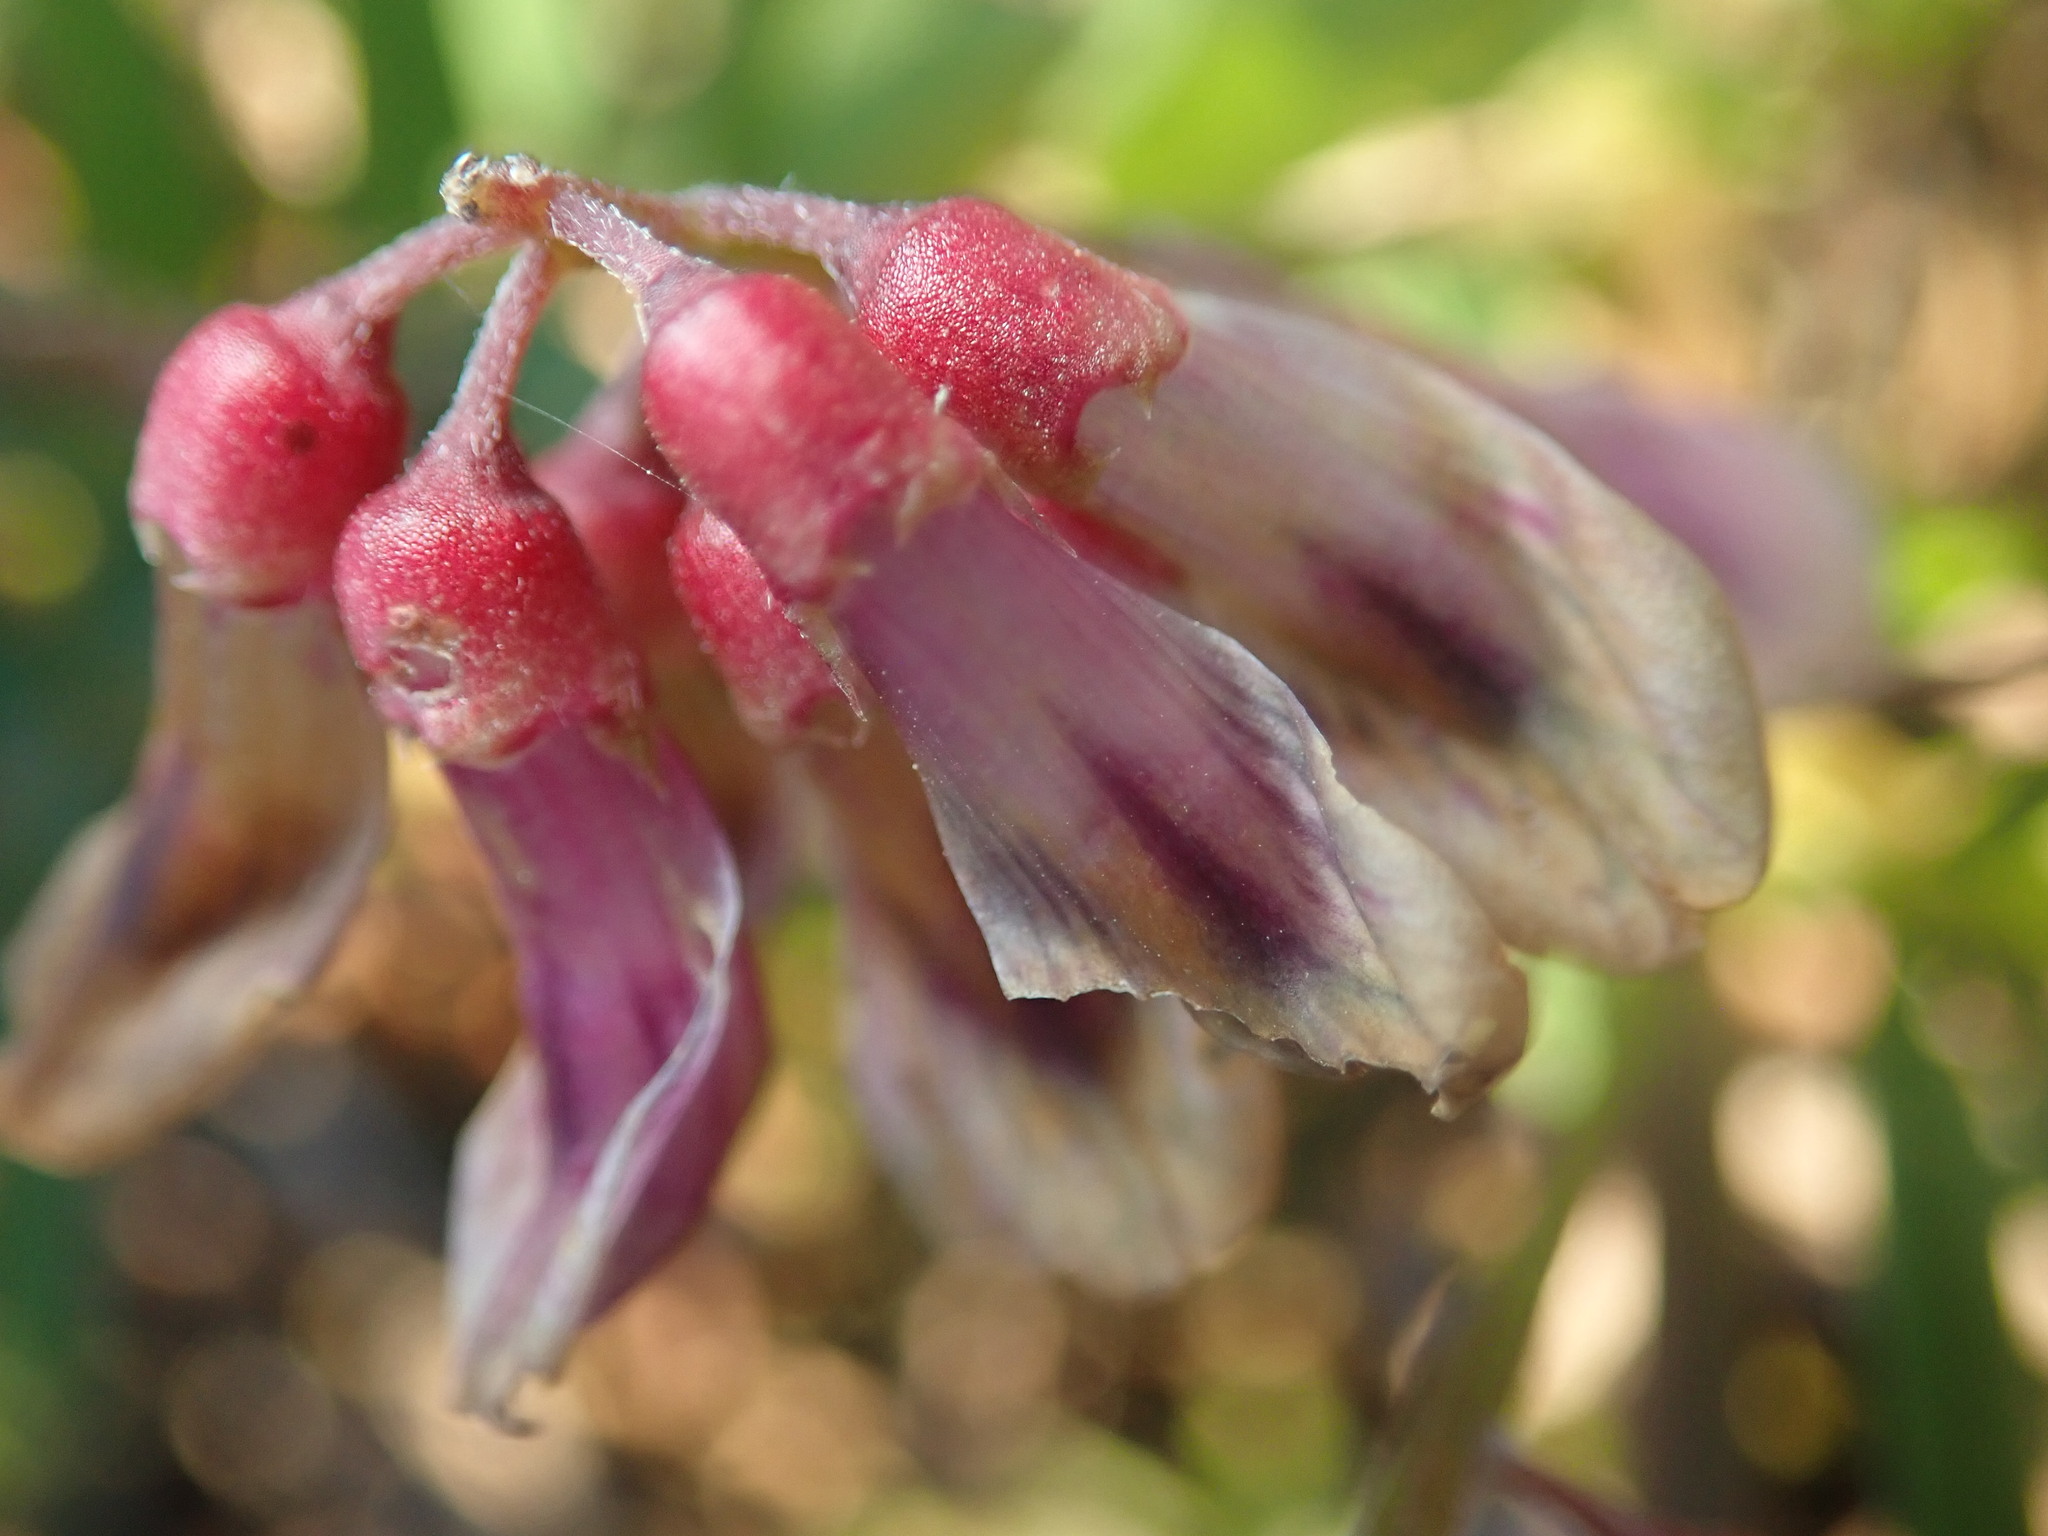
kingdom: Plantae
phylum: Tracheophyta
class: Magnoliopsida
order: Fabales
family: Fabaceae
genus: Vicia
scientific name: Vicia
